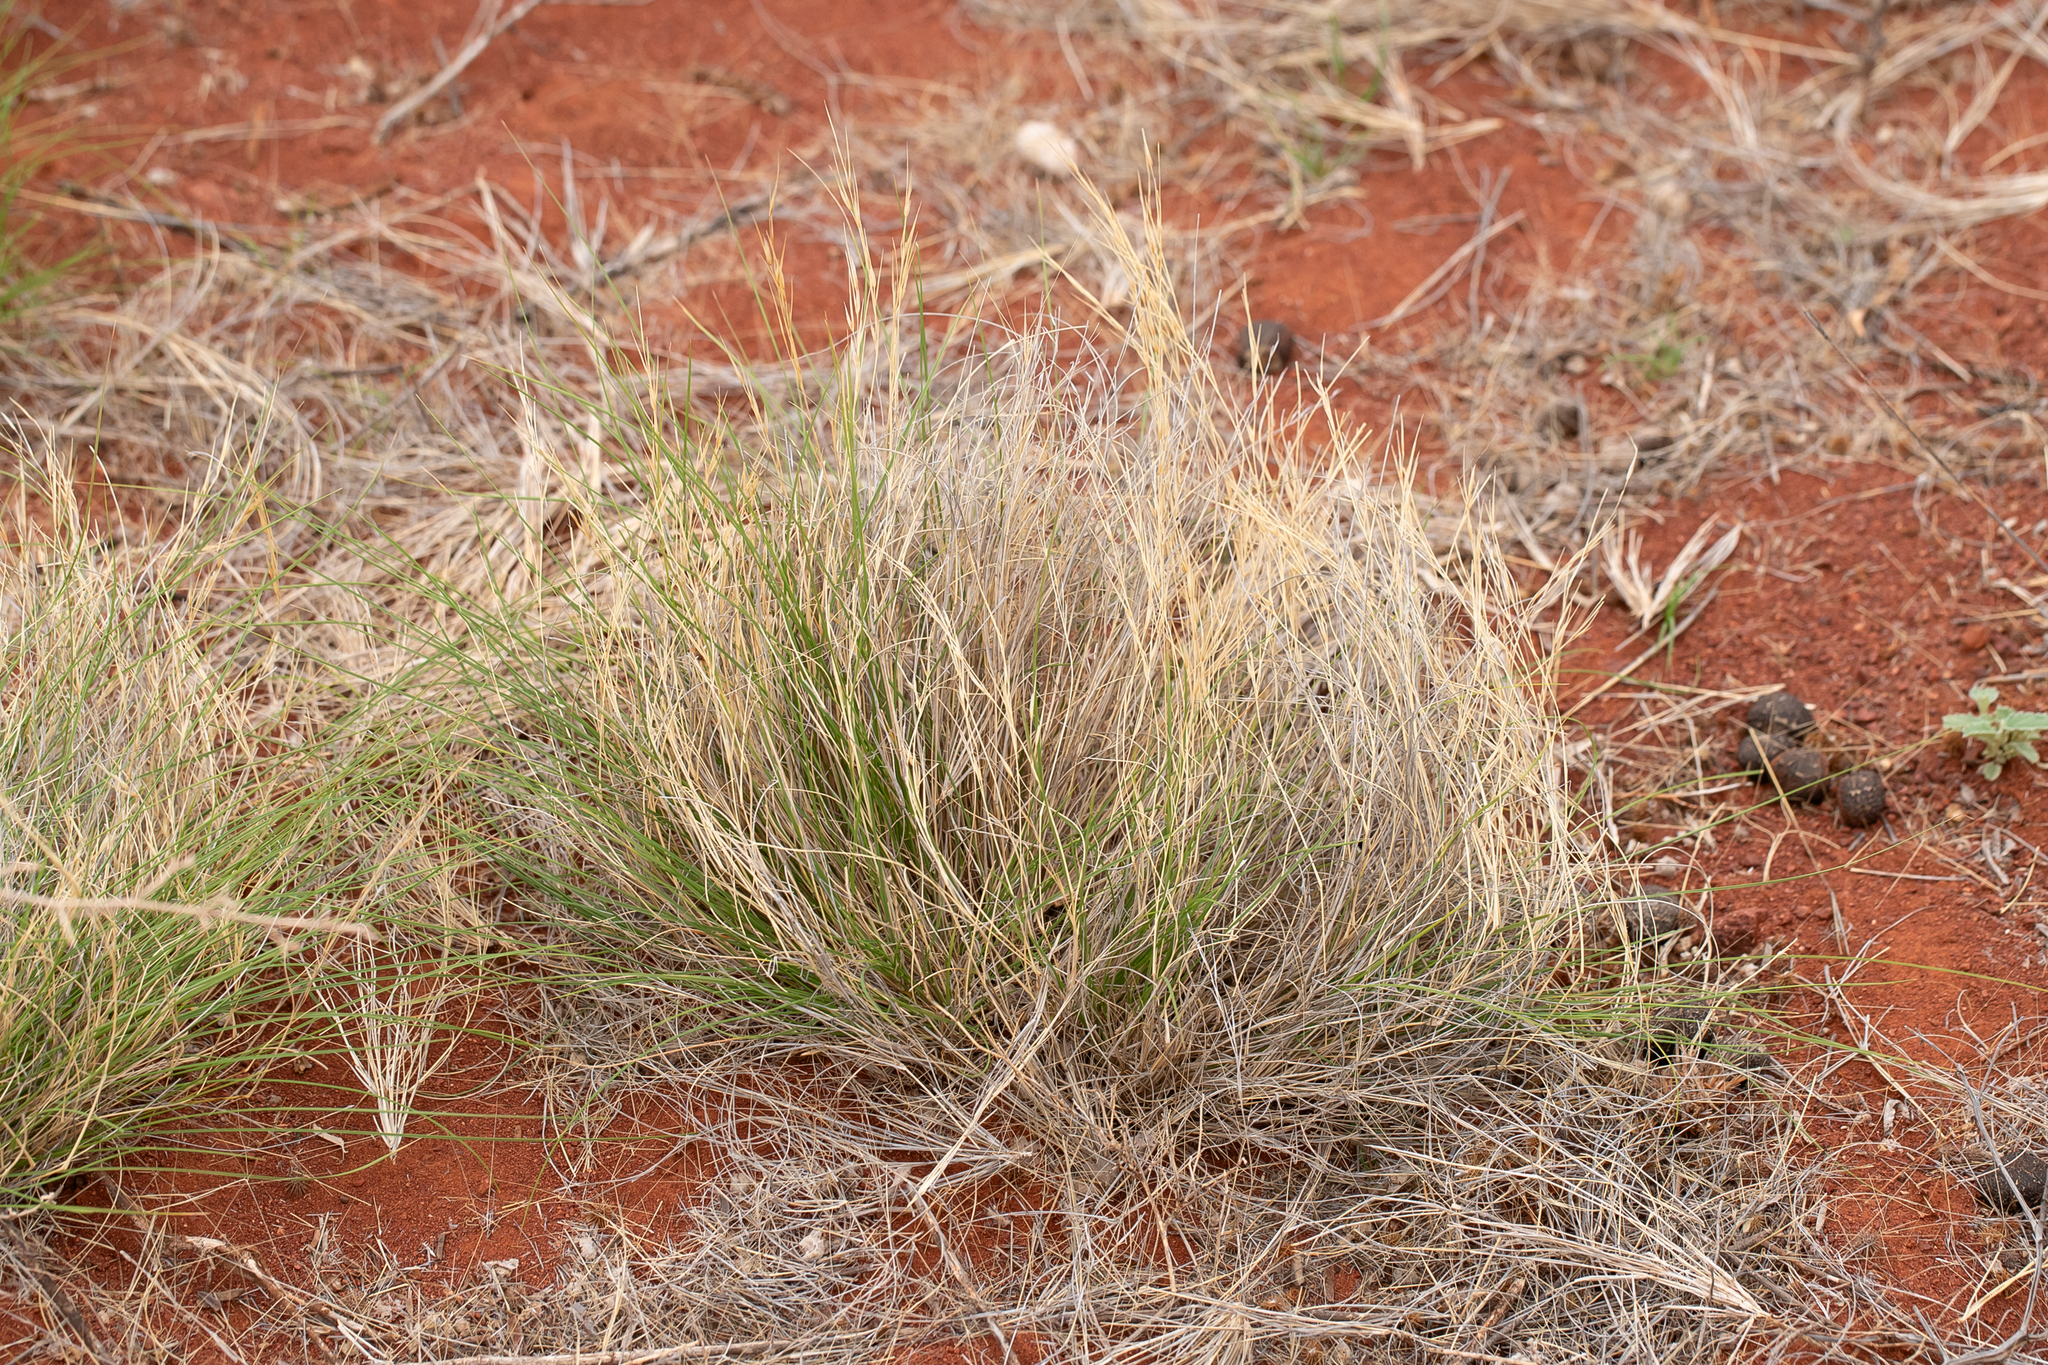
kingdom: Plantae
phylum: Tracheophyta
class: Liliopsida
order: Poales
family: Poaceae
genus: Aristida
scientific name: Aristida contorta
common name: Bunch kerosene grass
